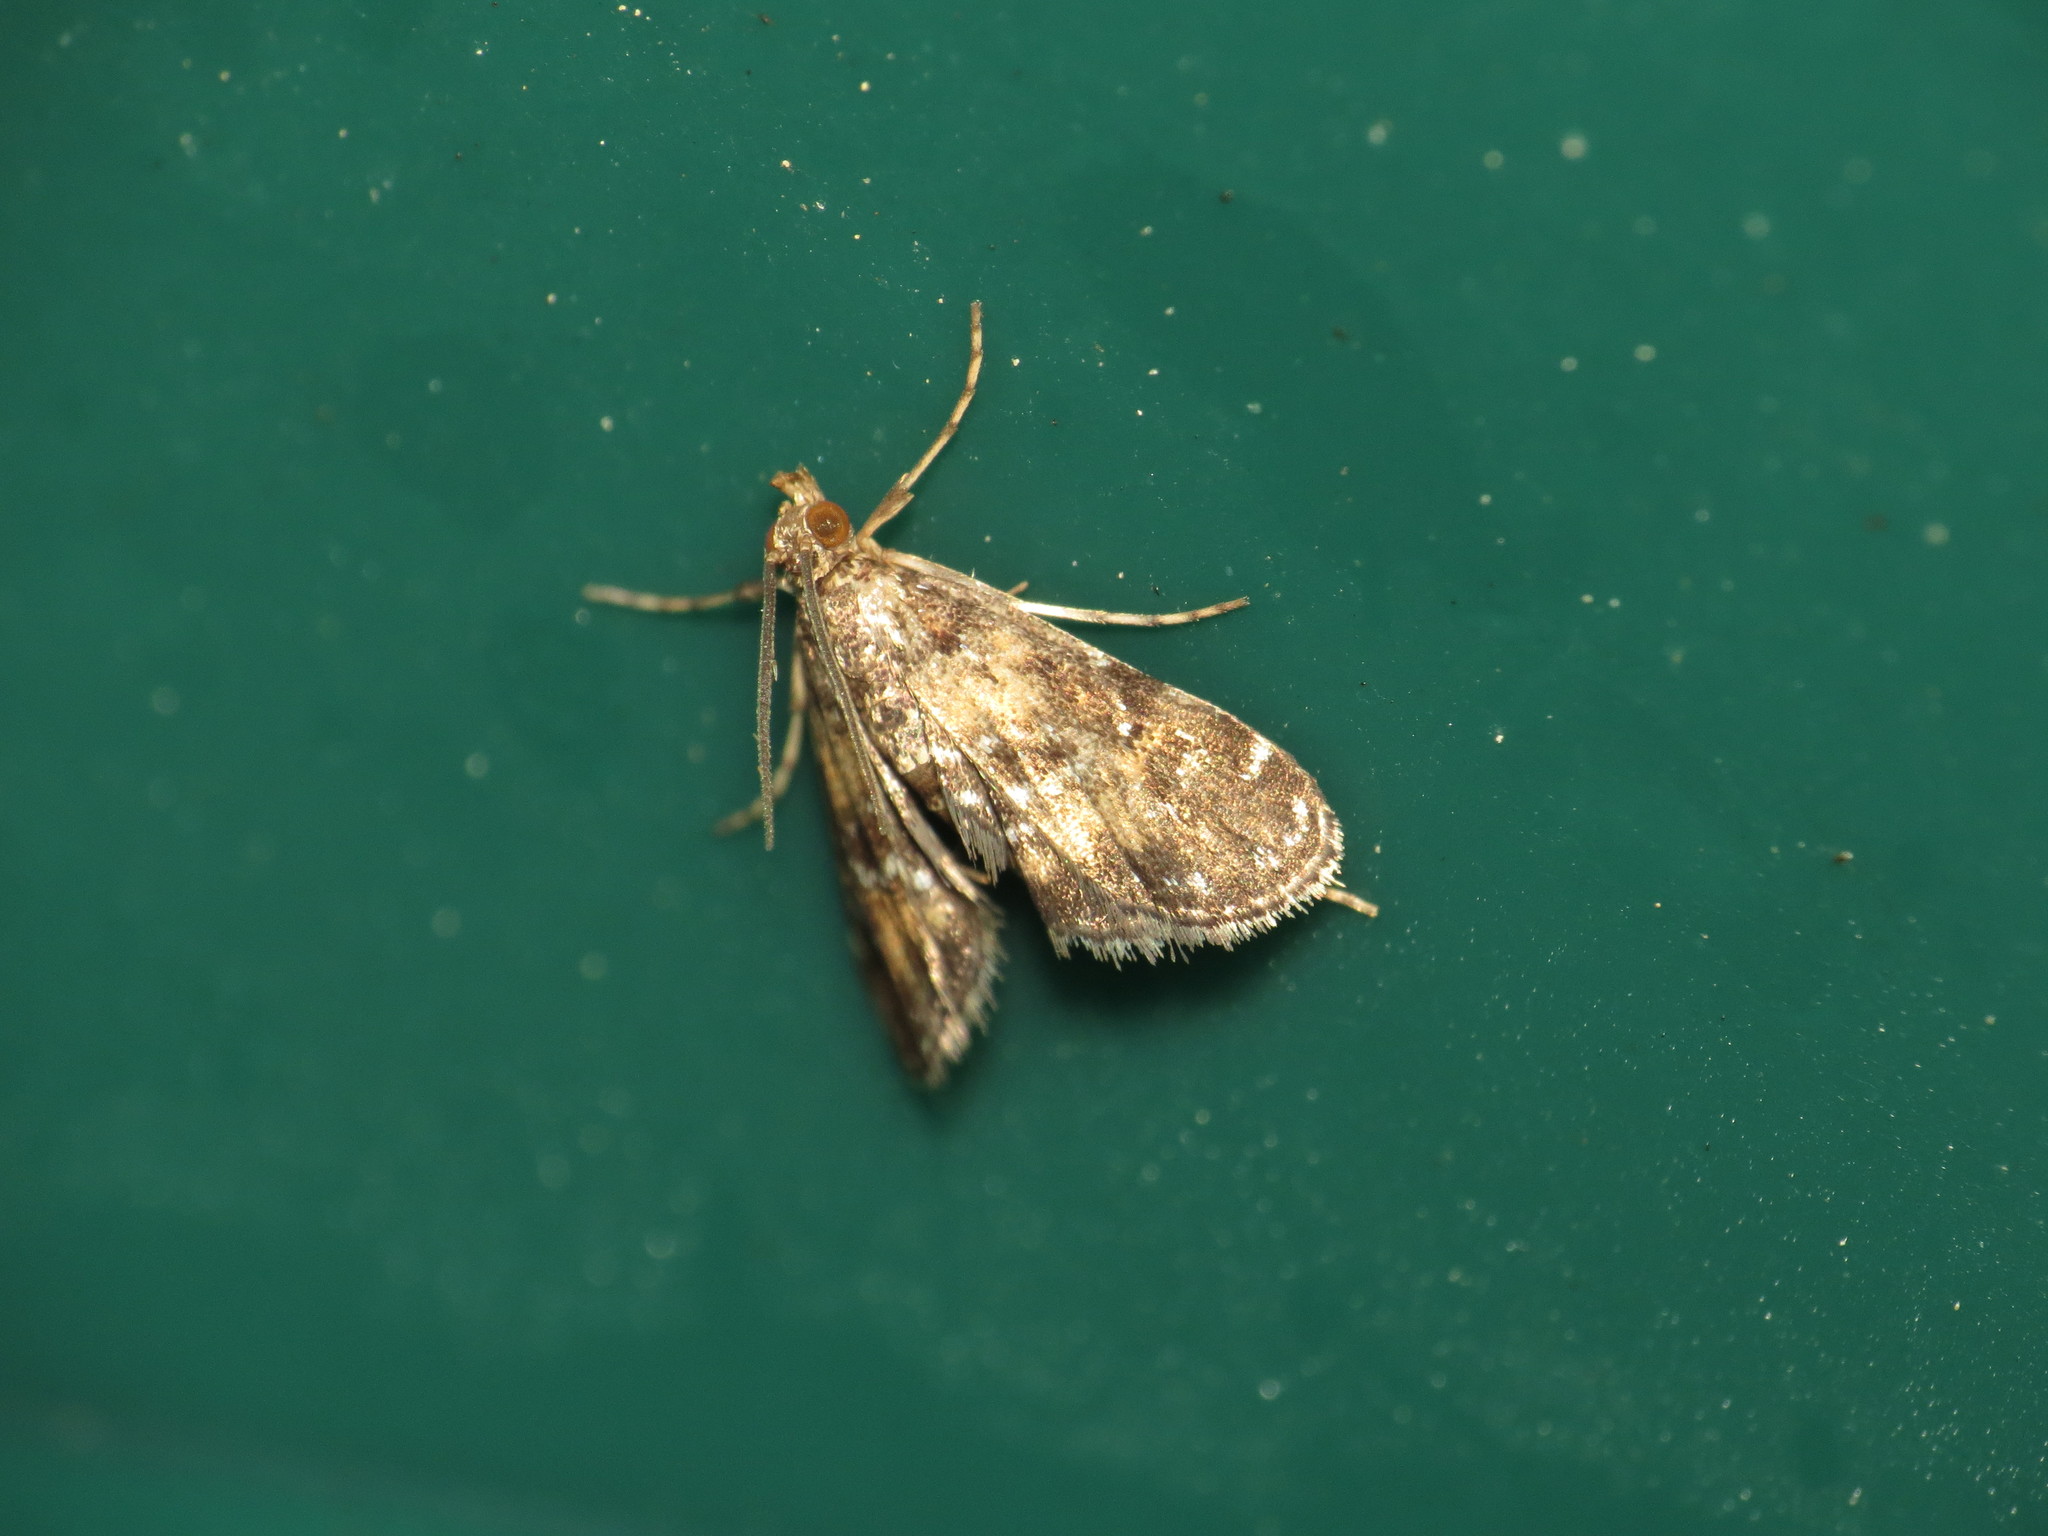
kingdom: Animalia
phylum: Arthropoda
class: Insecta
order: Lepidoptera
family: Crambidae
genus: Elophila
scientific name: Elophila obliteralis
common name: Waterlily leafcutter moth
